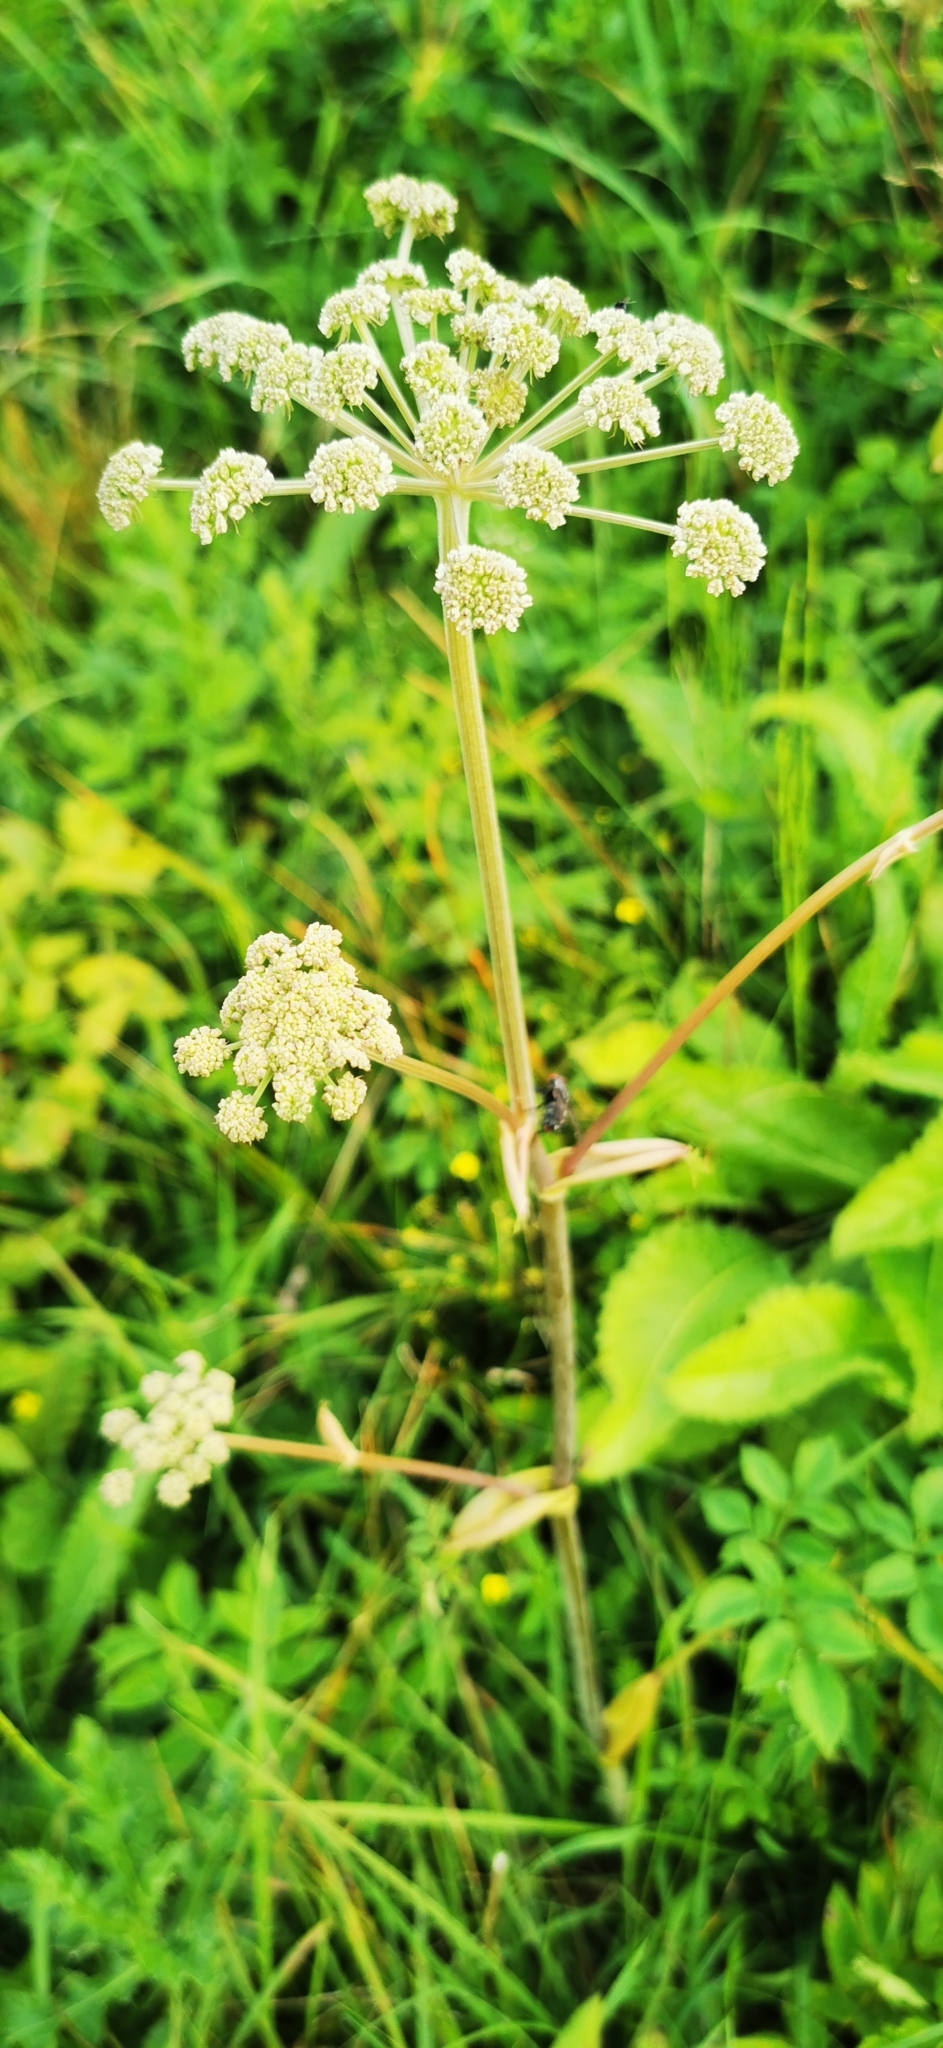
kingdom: Plantae
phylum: Tracheophyta
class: Magnoliopsida
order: Apiales
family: Apiaceae
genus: Angelica
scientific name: Angelica sylvestris
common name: Wild angelica
